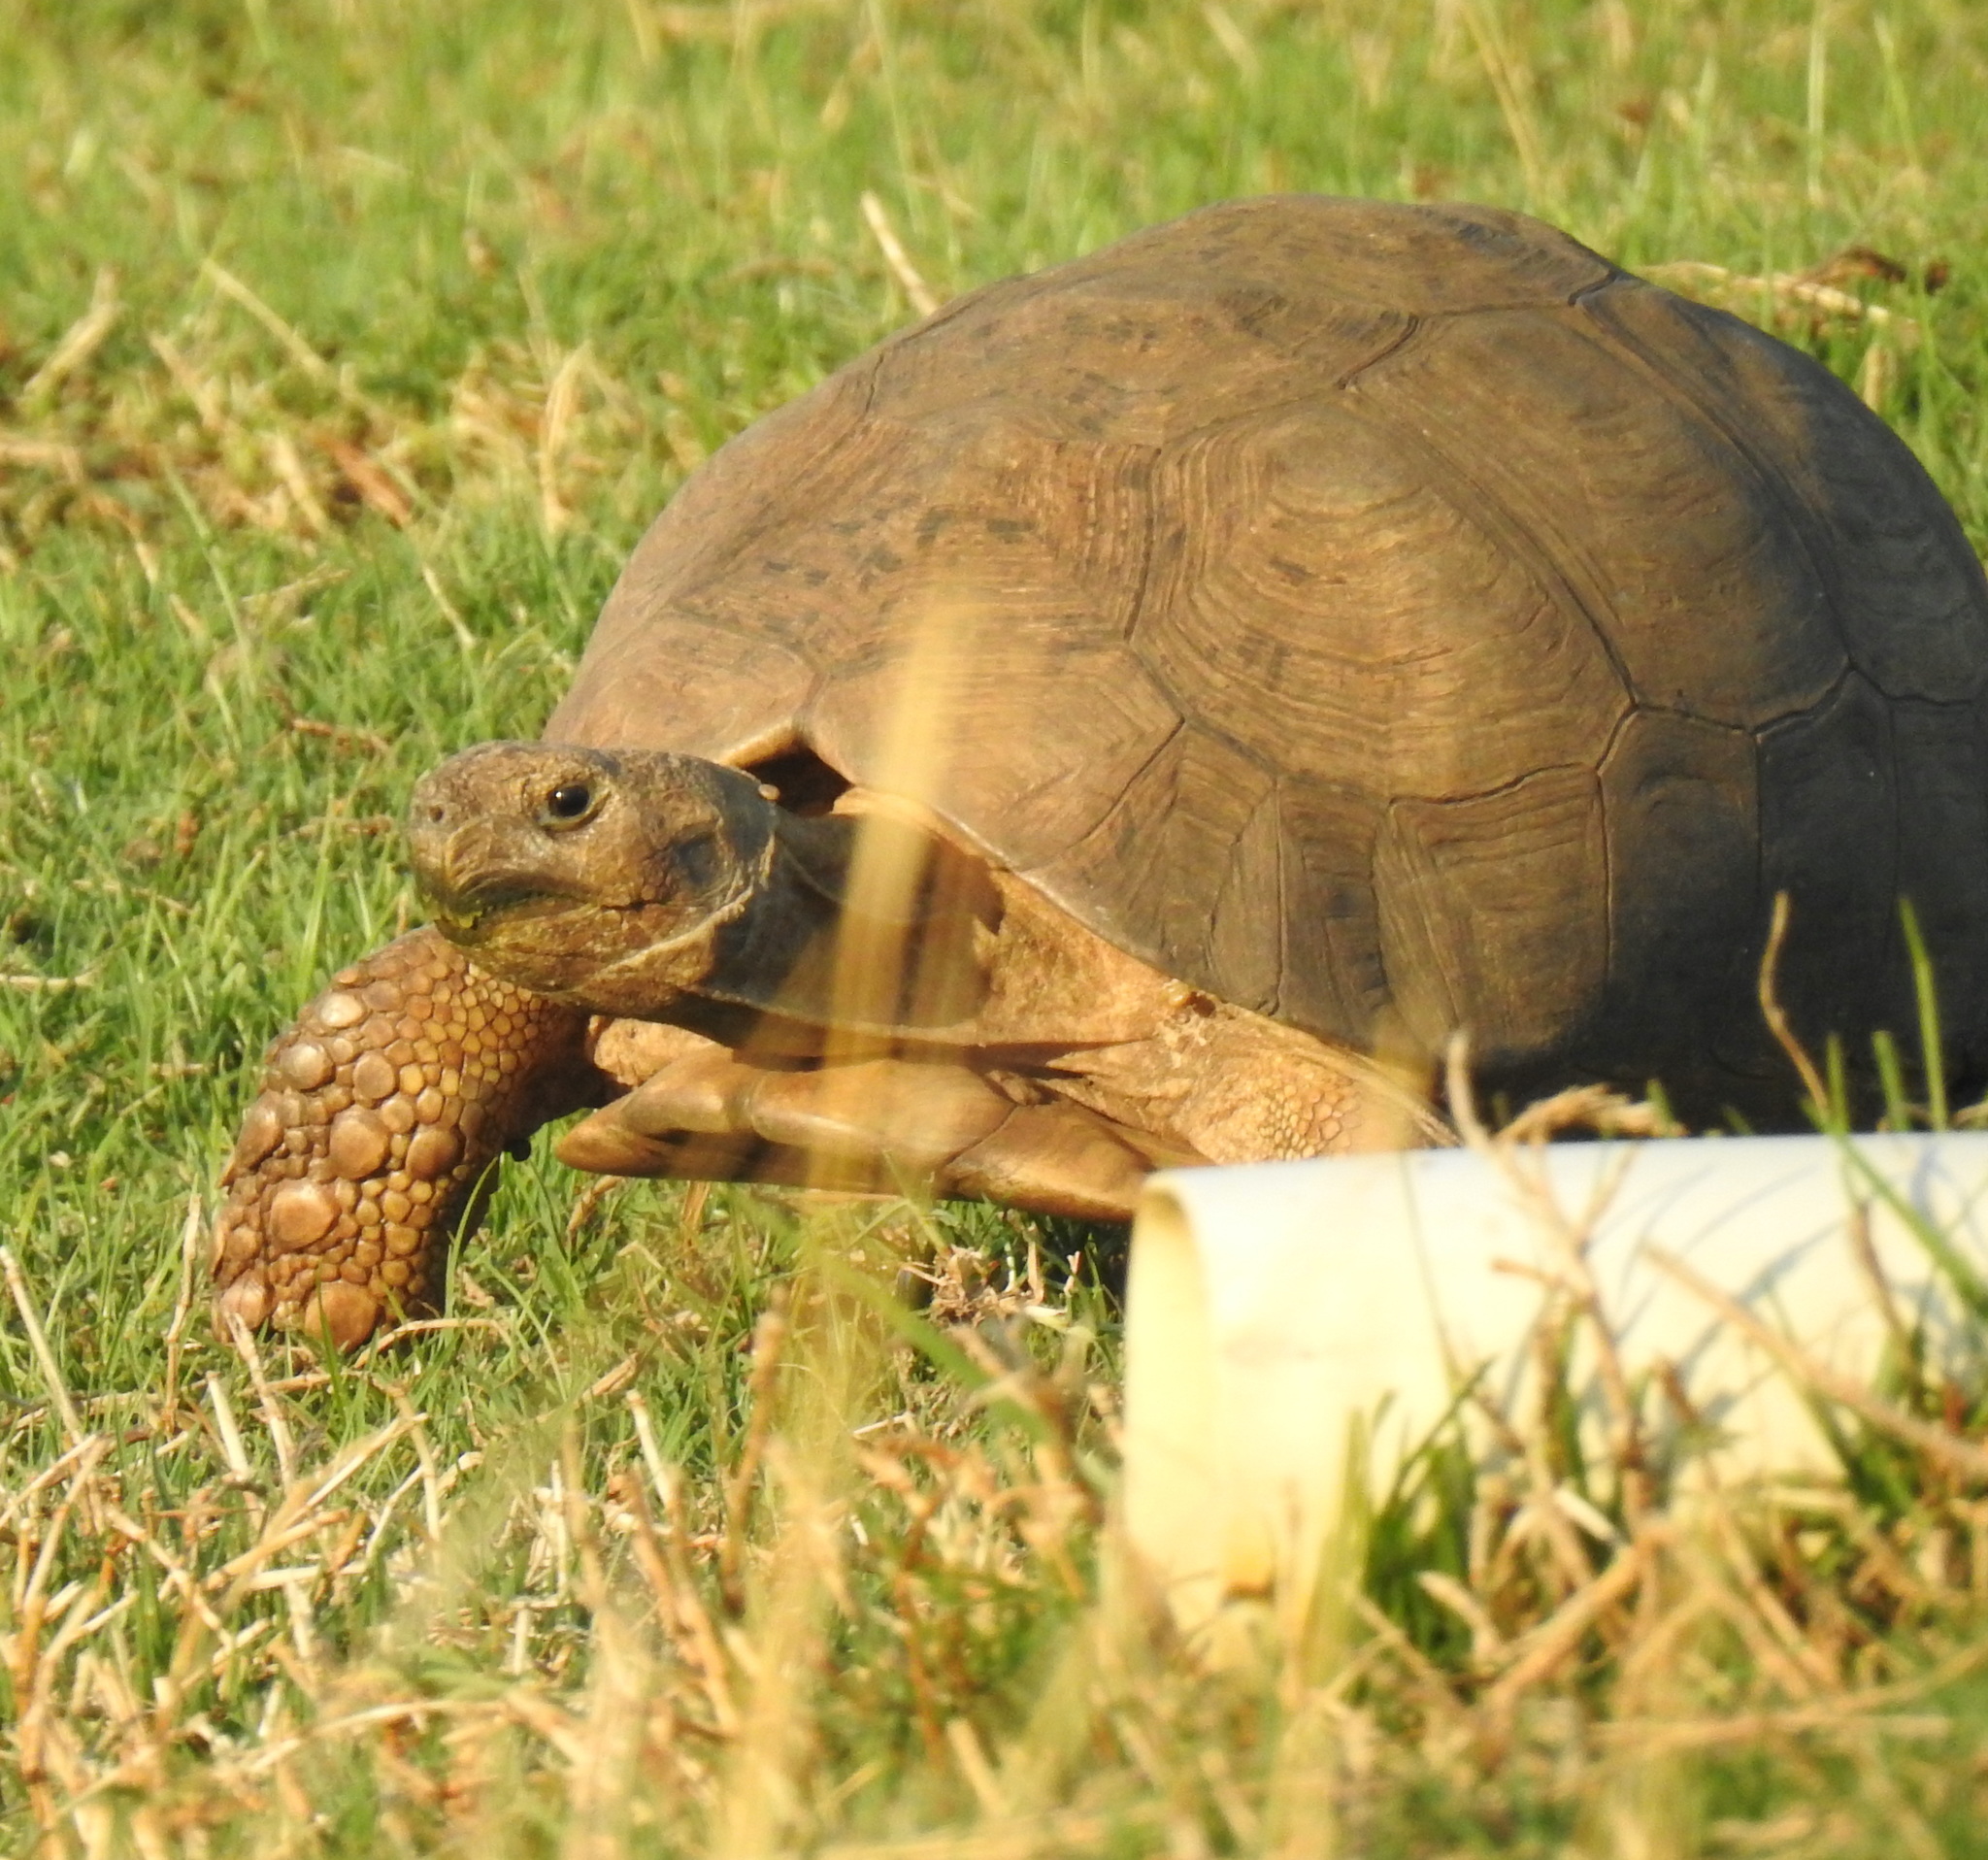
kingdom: Animalia
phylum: Chordata
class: Testudines
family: Testudinidae
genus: Stigmochelys
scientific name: Stigmochelys pardalis
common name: Leopard tortoise
